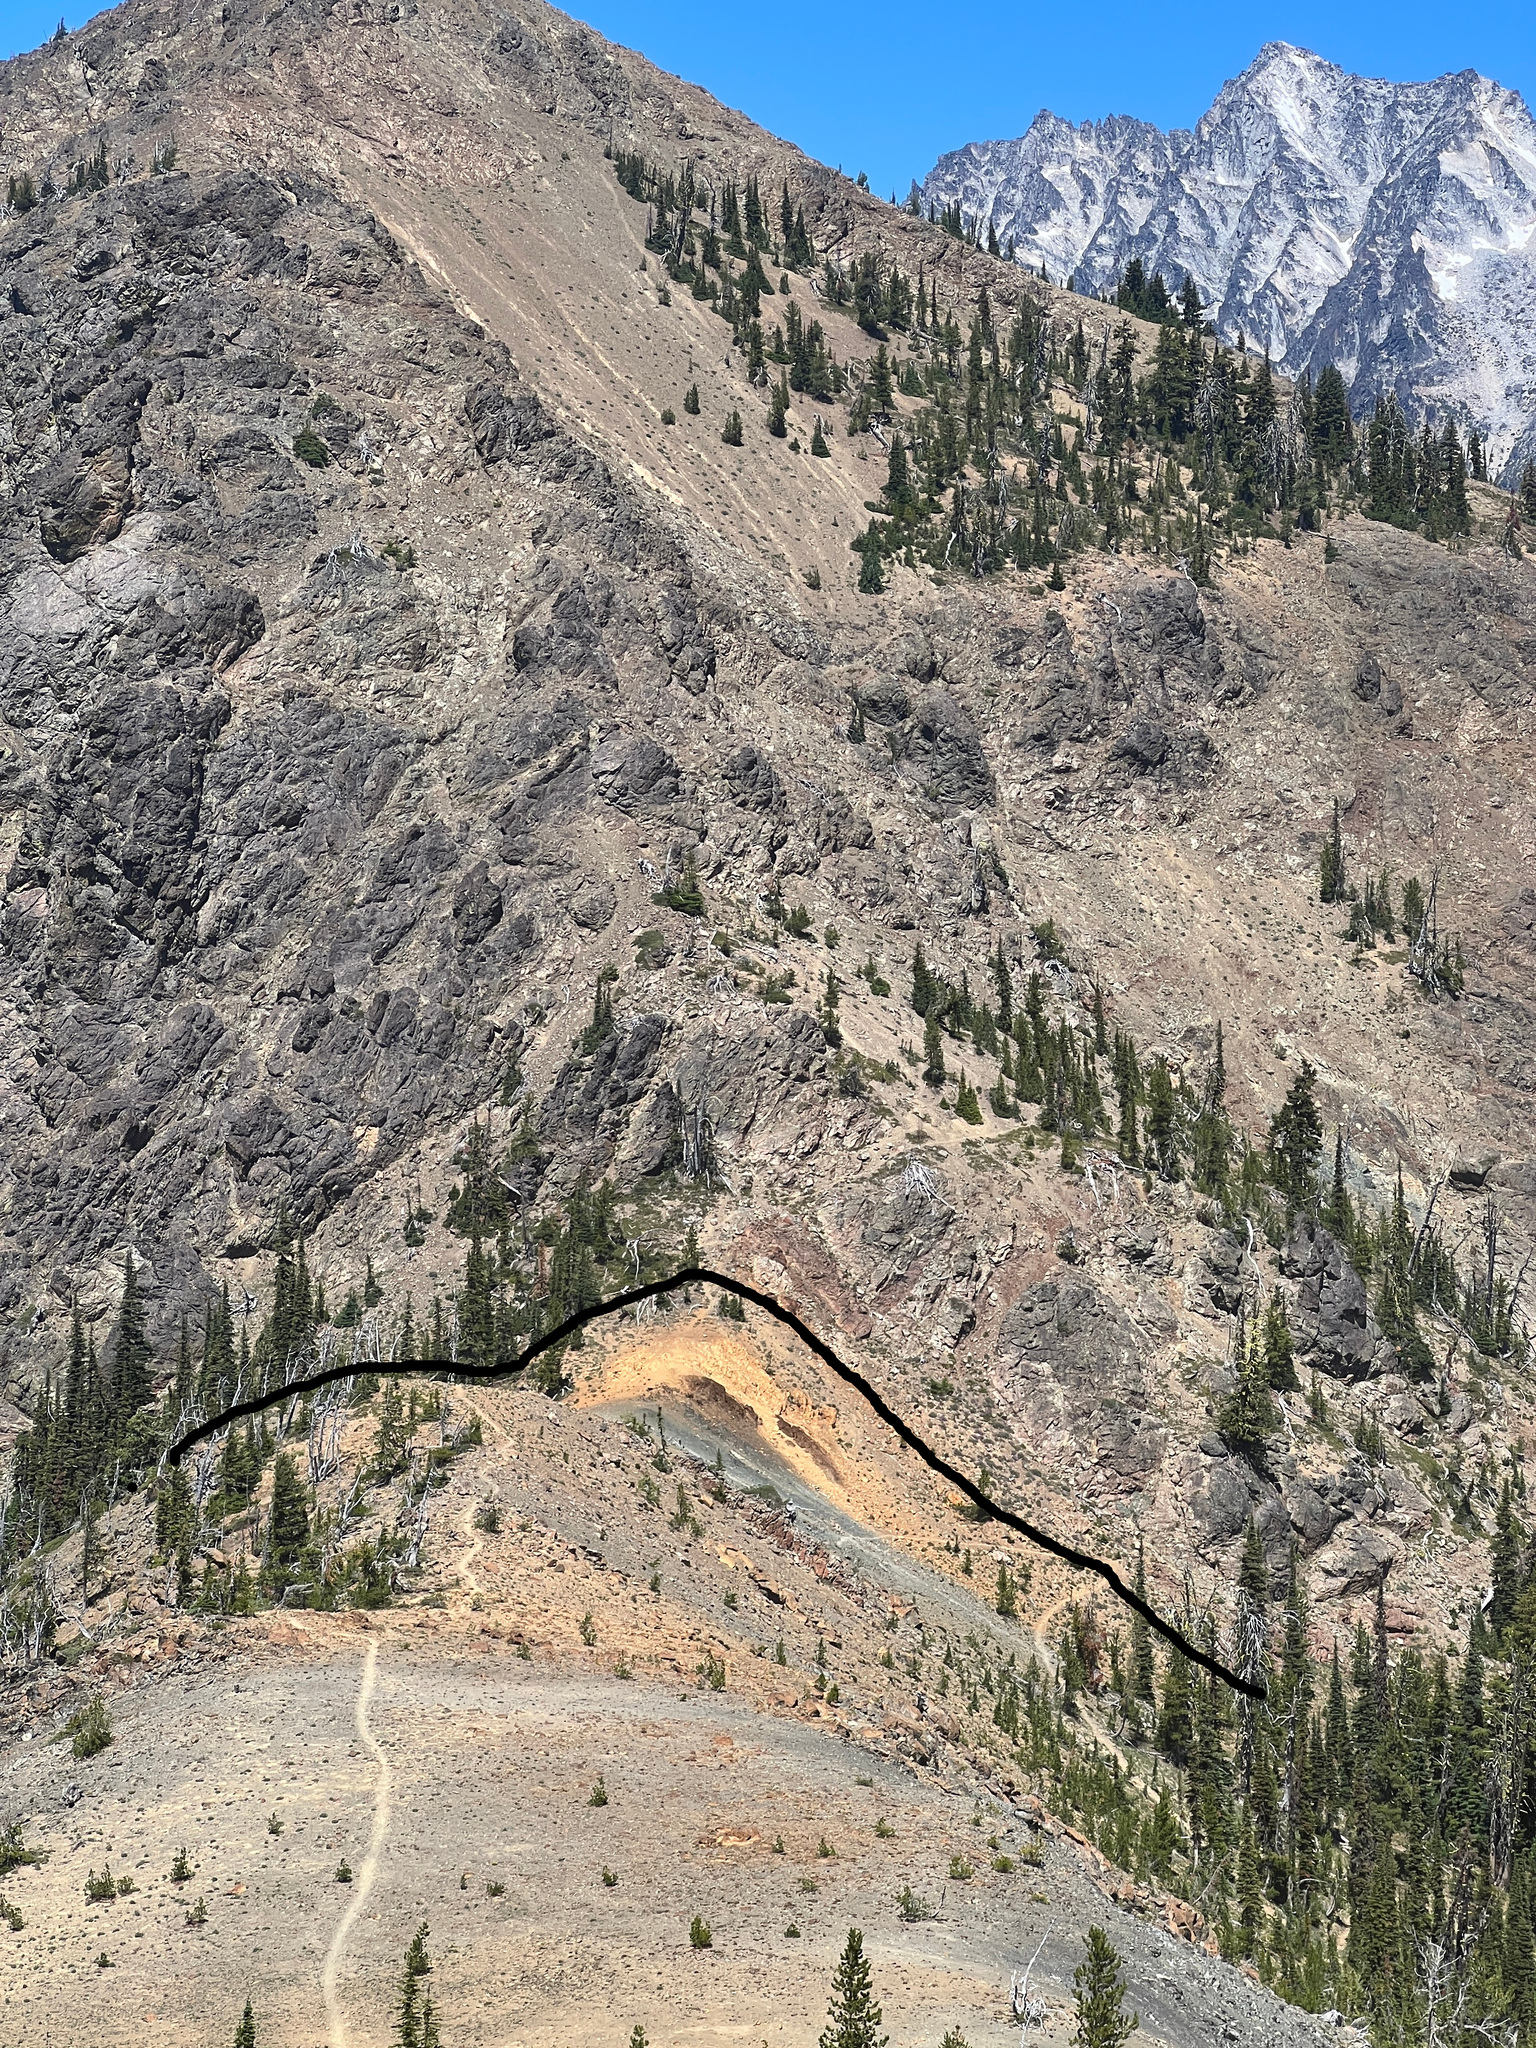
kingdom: Plantae
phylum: Tracheophyta
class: Polypodiopsida
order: Polypodiales
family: Pteridaceae
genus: Myriopteris
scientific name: Myriopteris gracillima
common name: Lace fern
